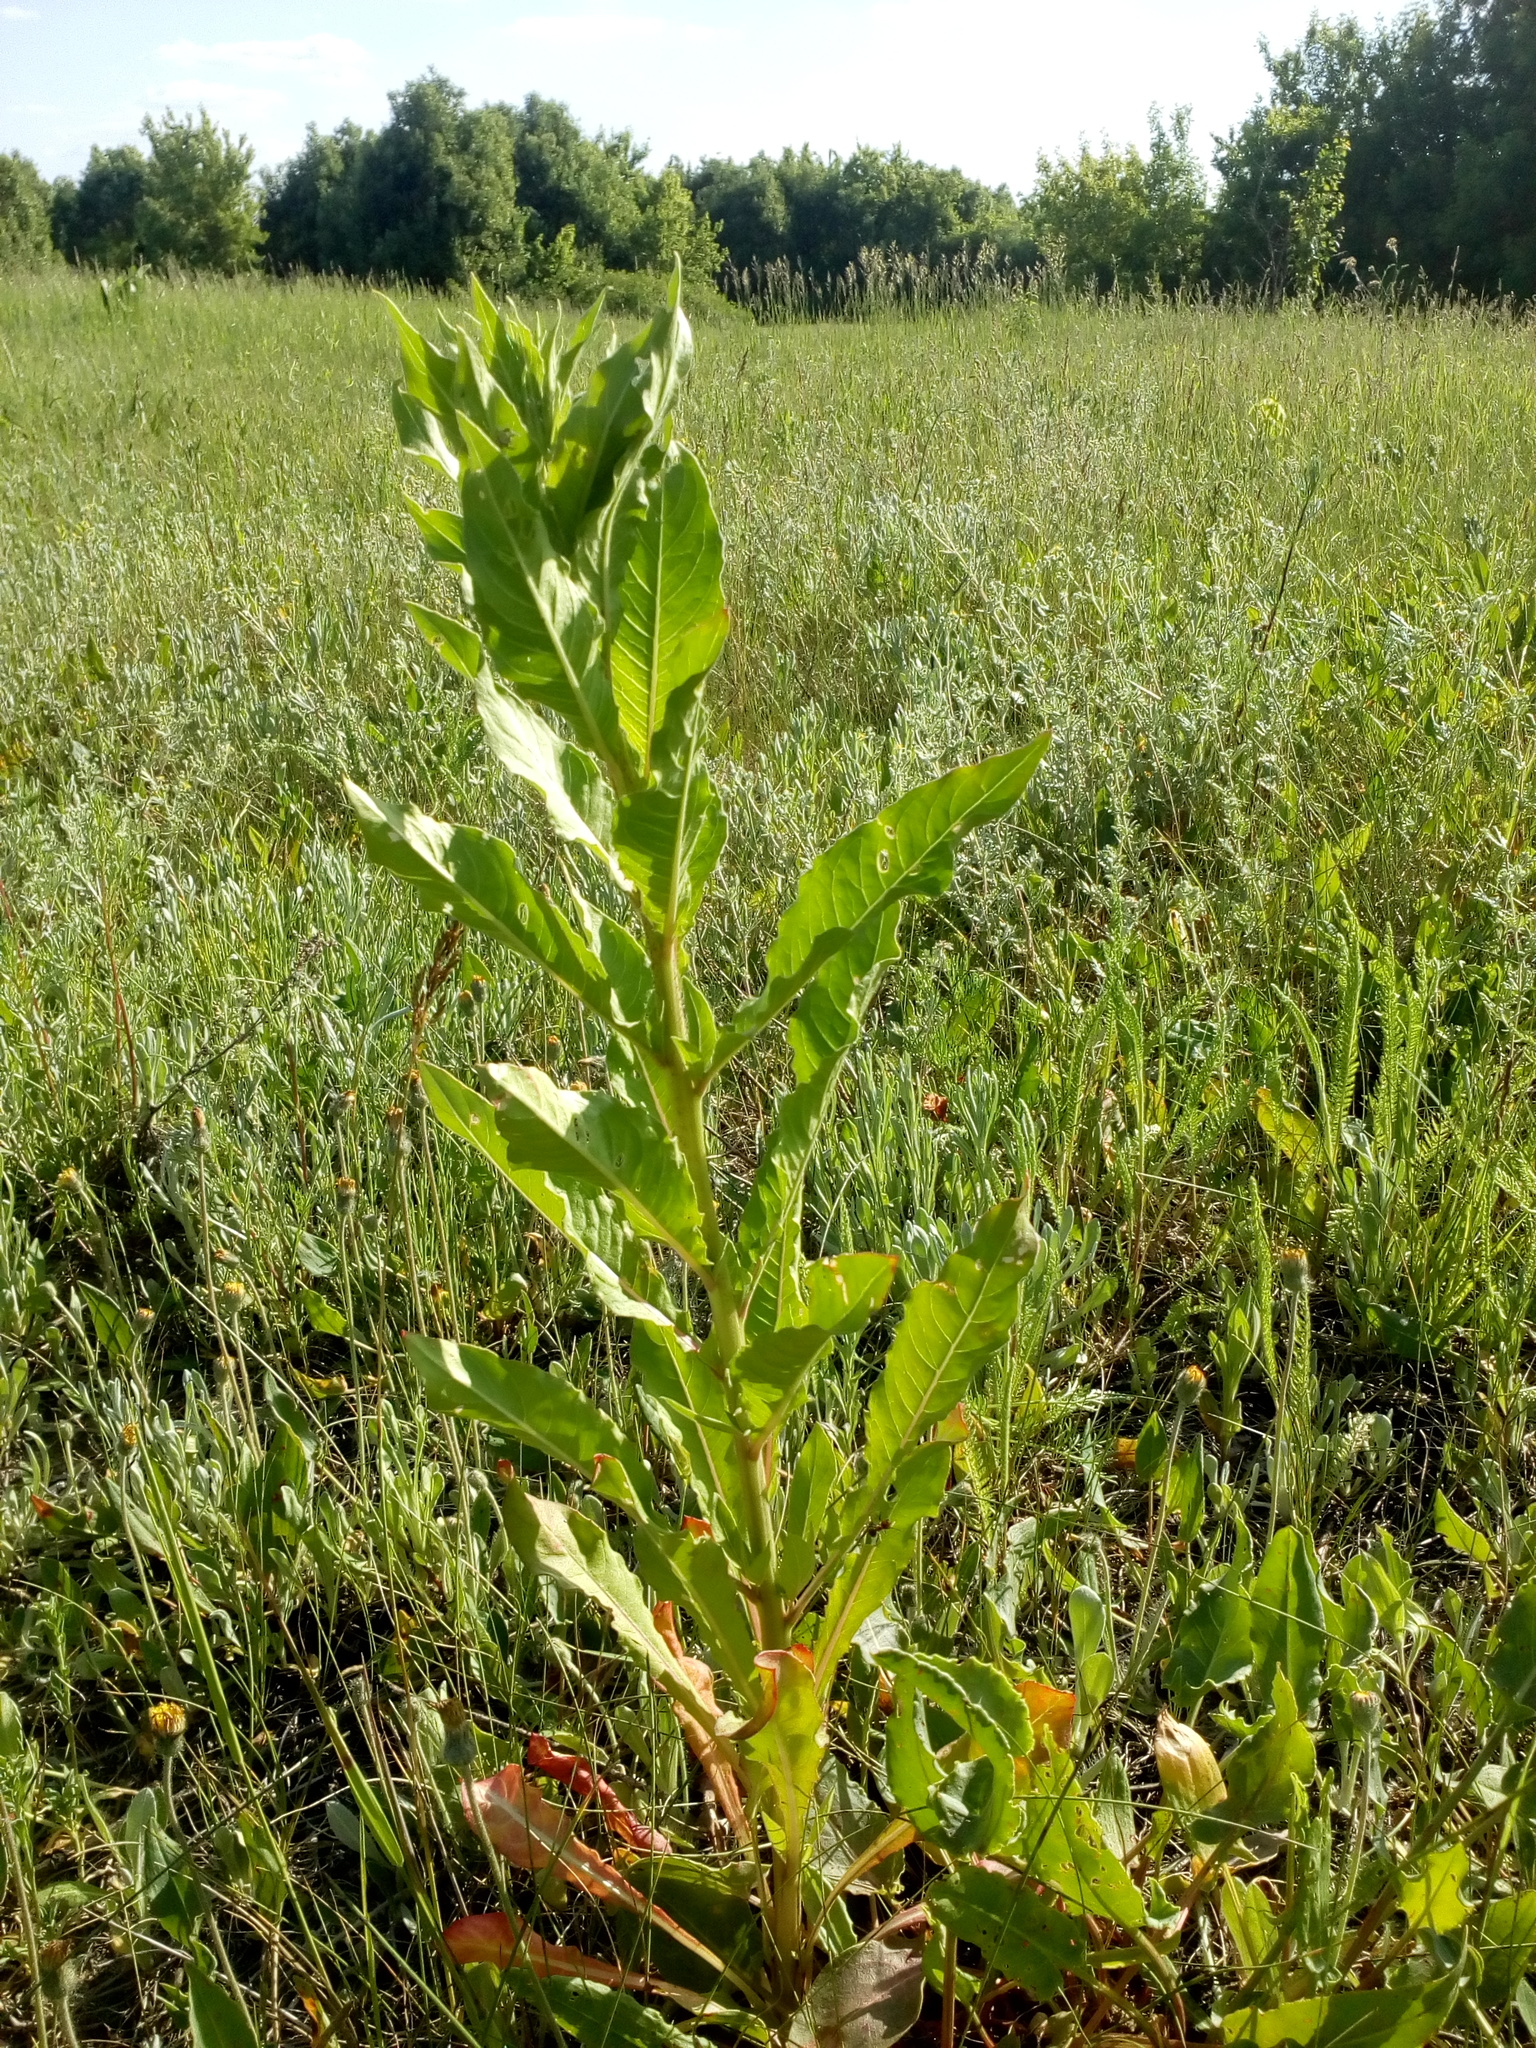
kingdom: Plantae
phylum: Tracheophyta
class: Magnoliopsida
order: Myrtales
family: Onagraceae
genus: Oenothera
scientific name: Oenothera biennis
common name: Common evening-primrose
